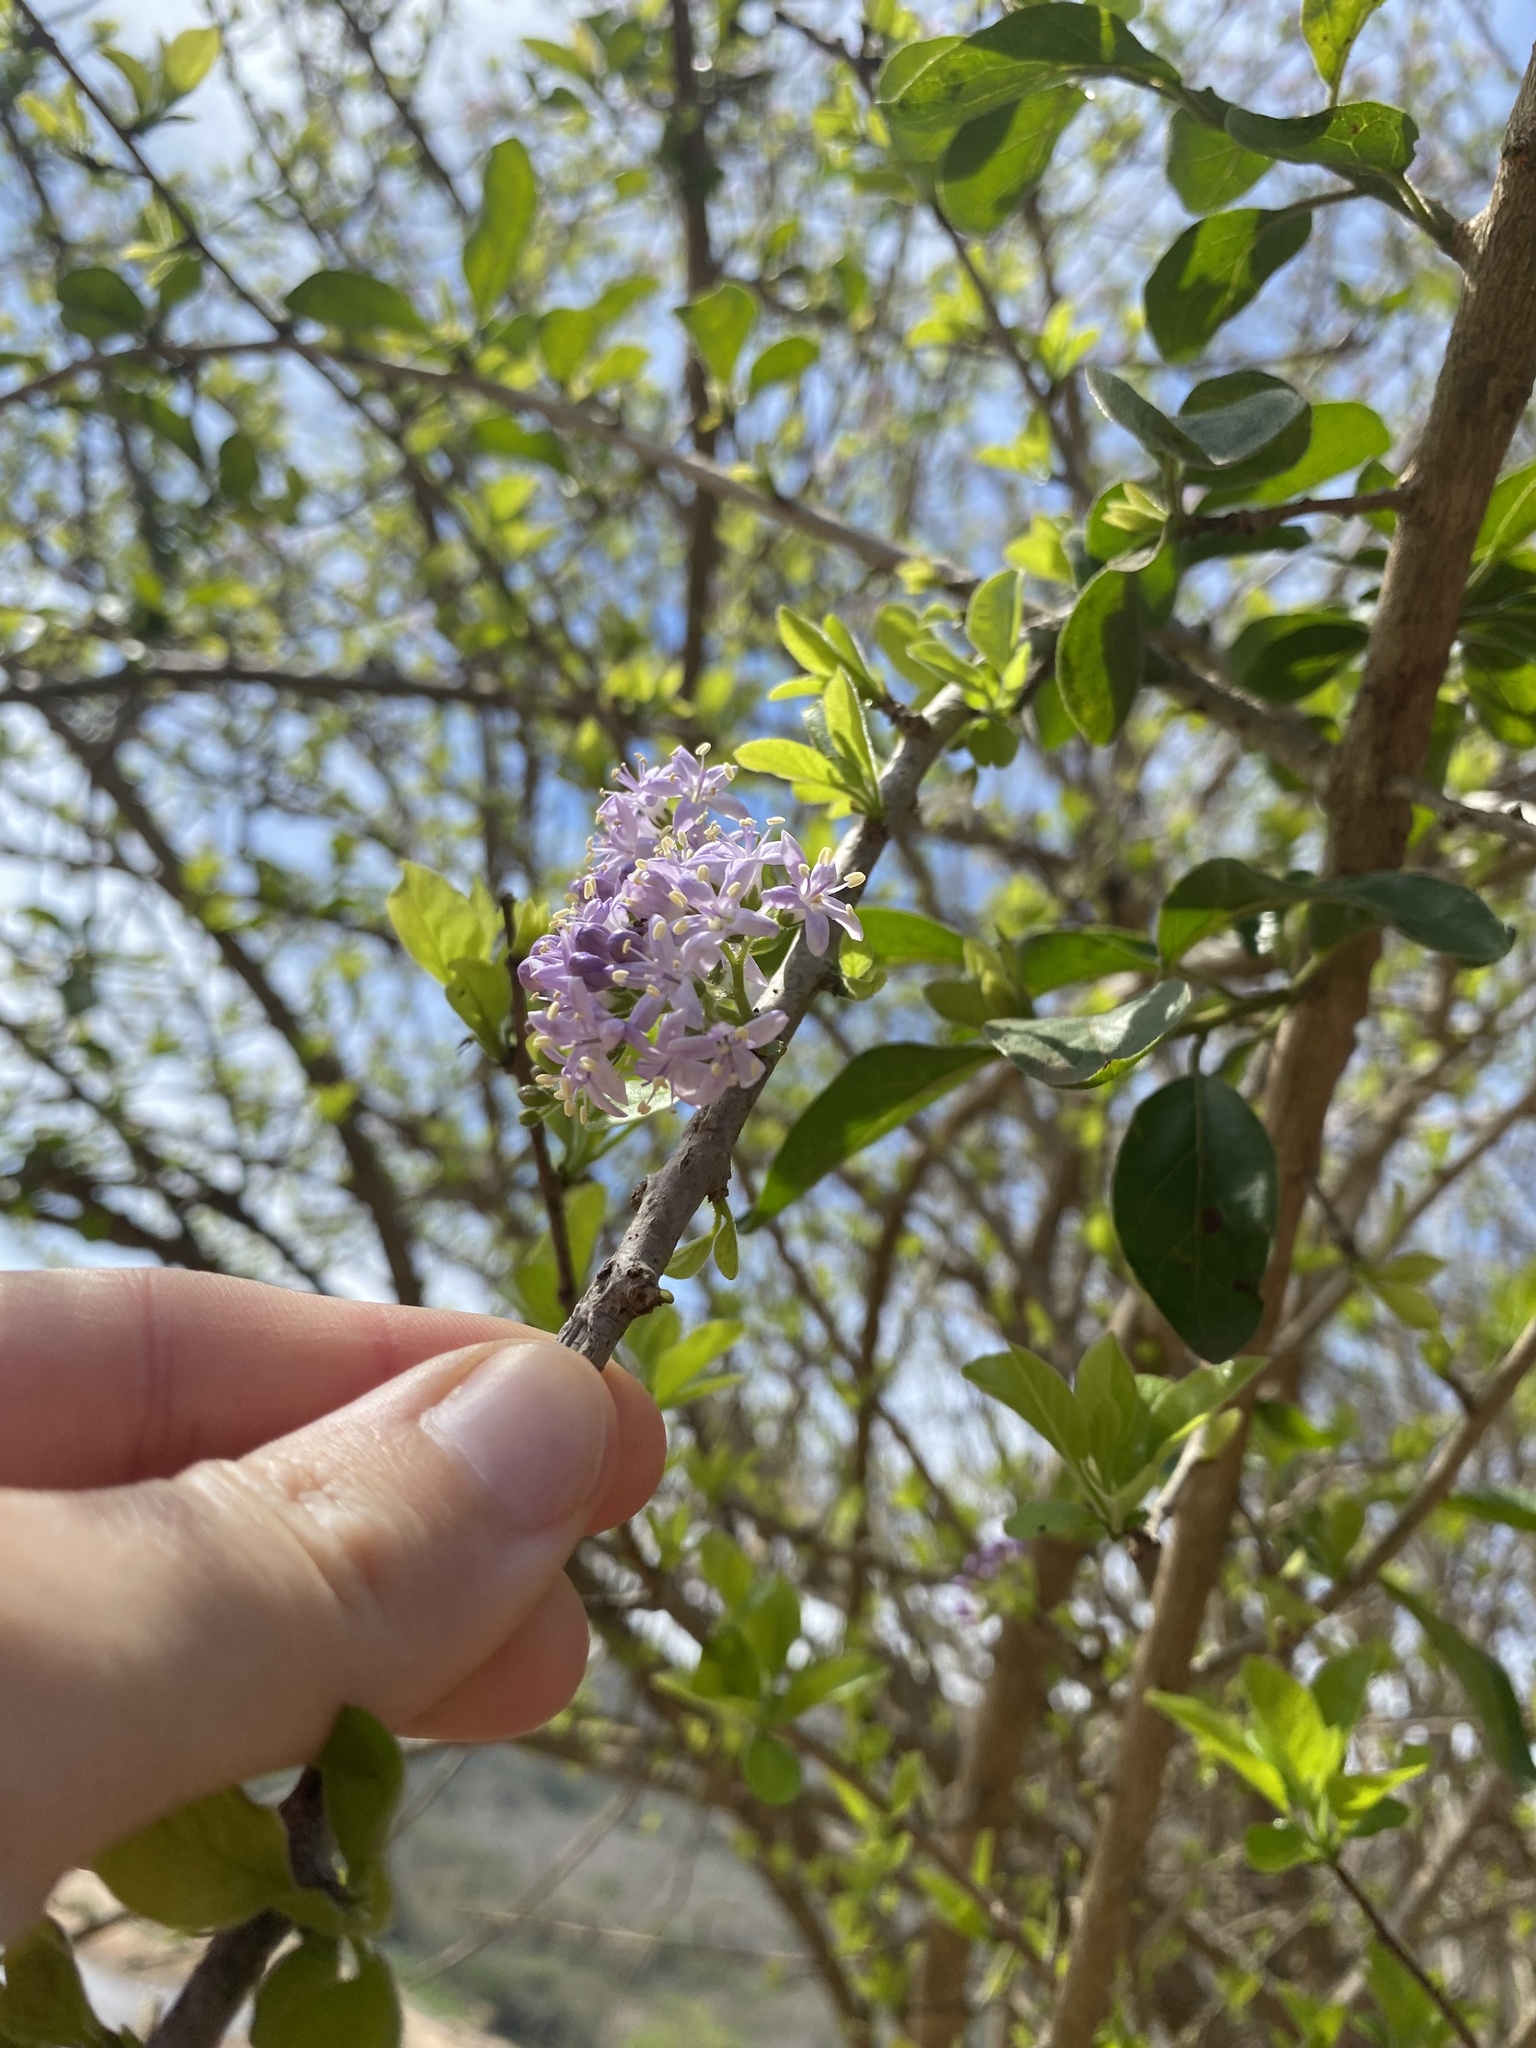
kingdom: Plantae
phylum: Tracheophyta
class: Magnoliopsida
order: Boraginales
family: Ehretiaceae
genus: Ehretia
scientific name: Ehretia rigida
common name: Cape lilac
